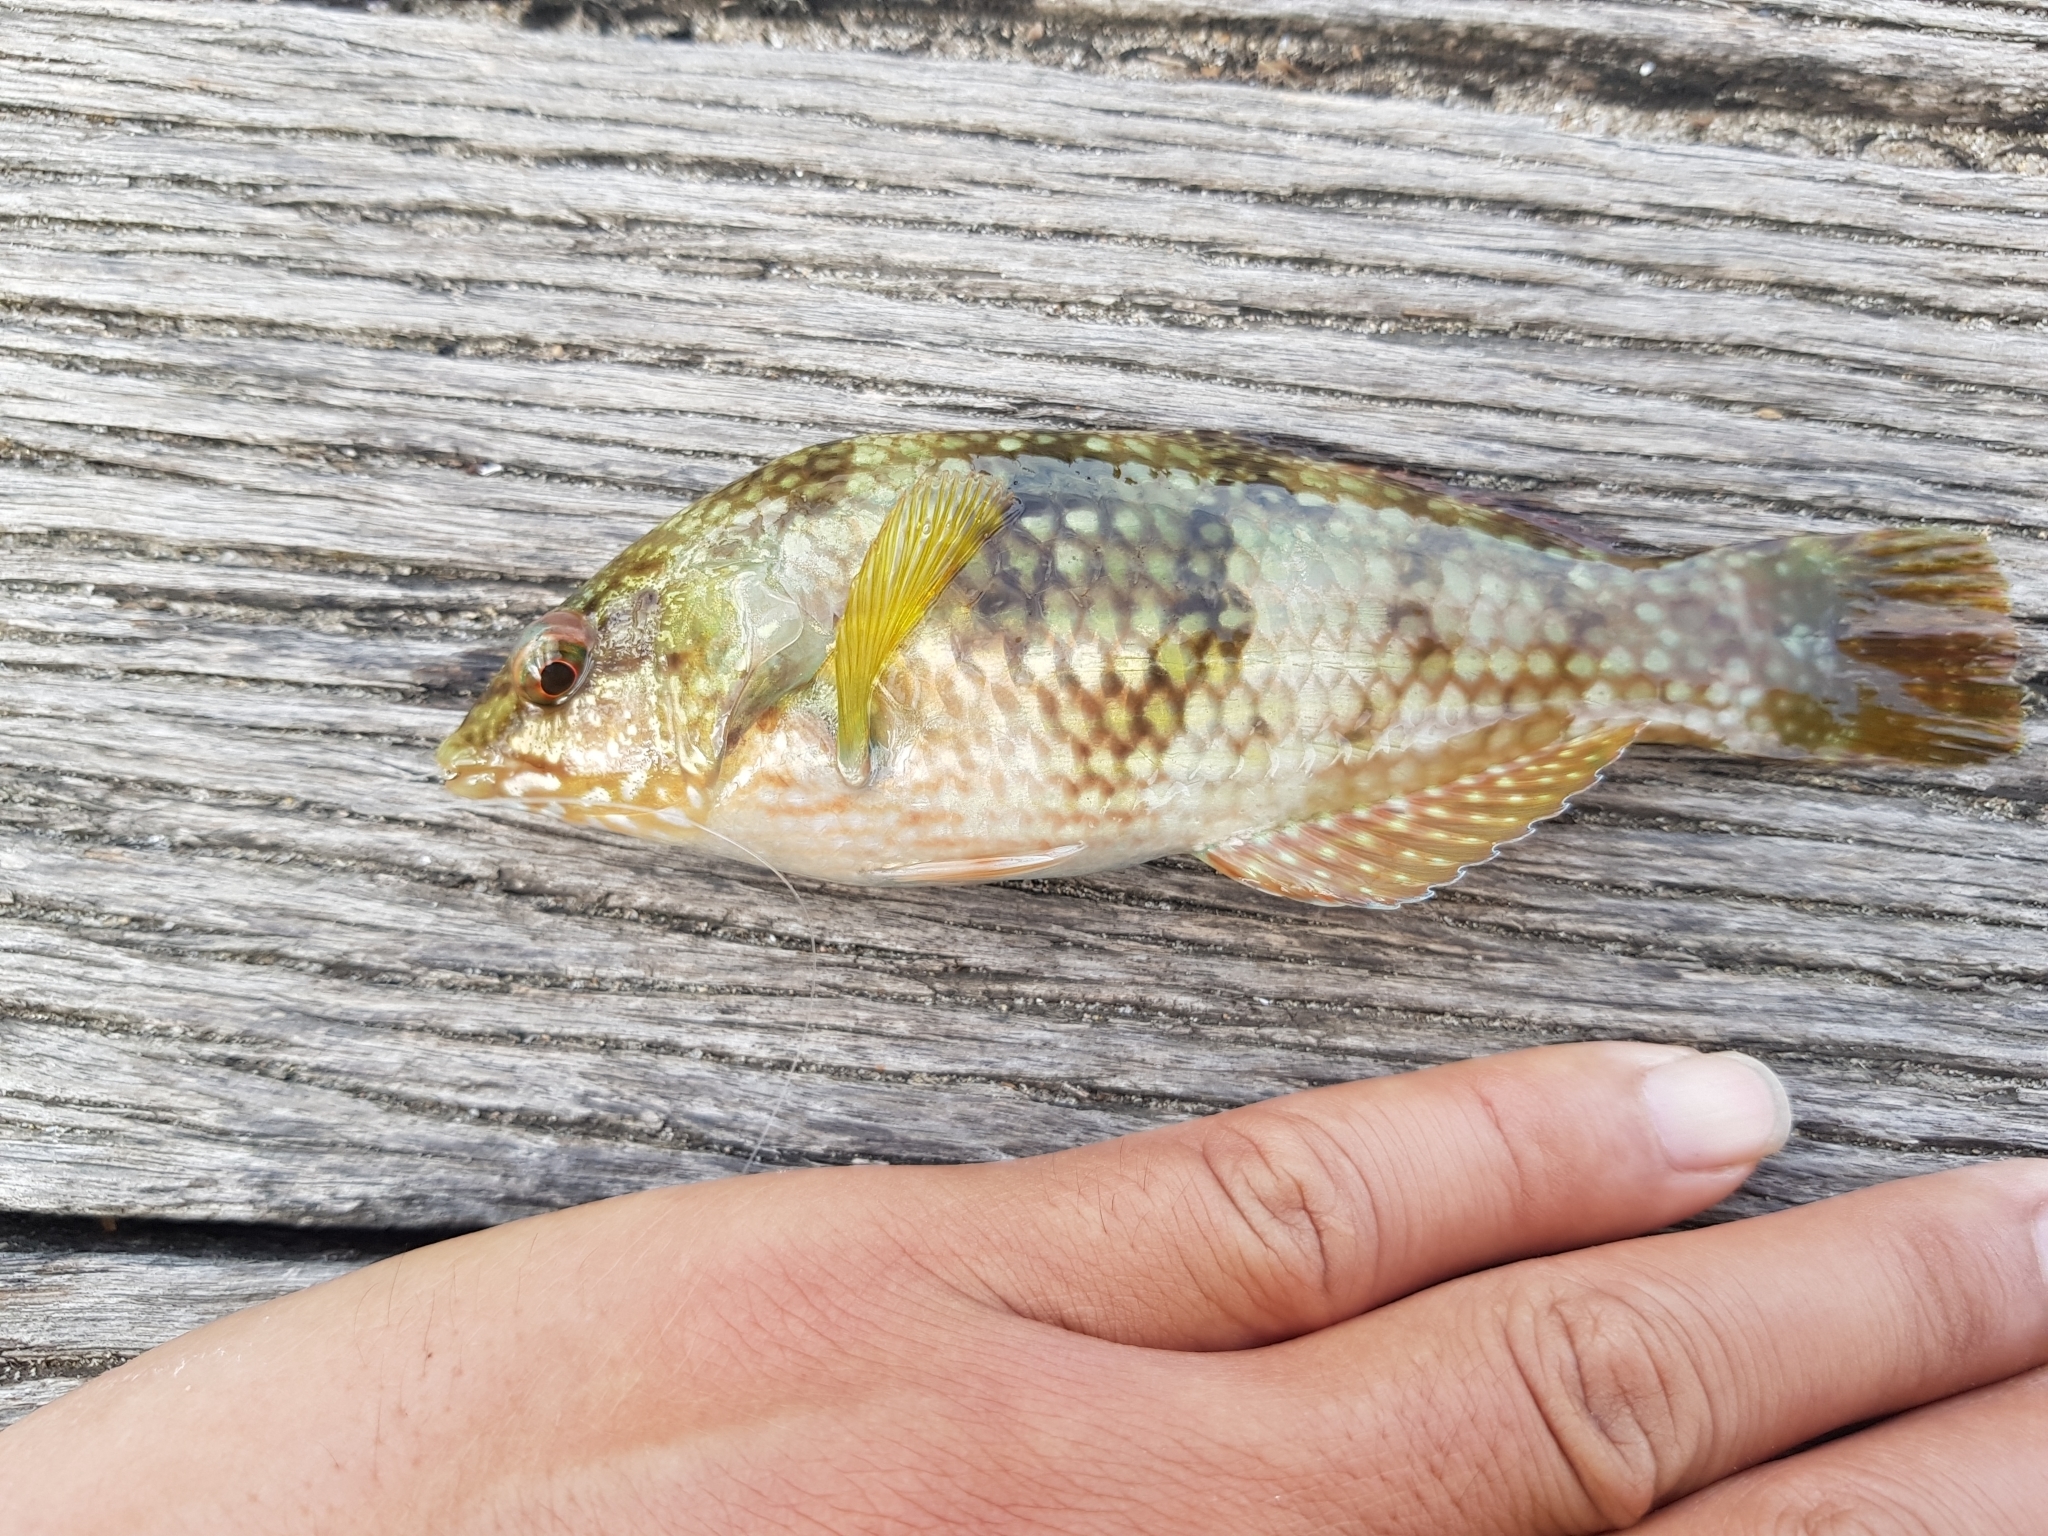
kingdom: Animalia
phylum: Chordata
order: Perciformes
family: Labridae
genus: Notolabrus
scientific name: Notolabrus tetricus
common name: Blue-throated parrotfish
